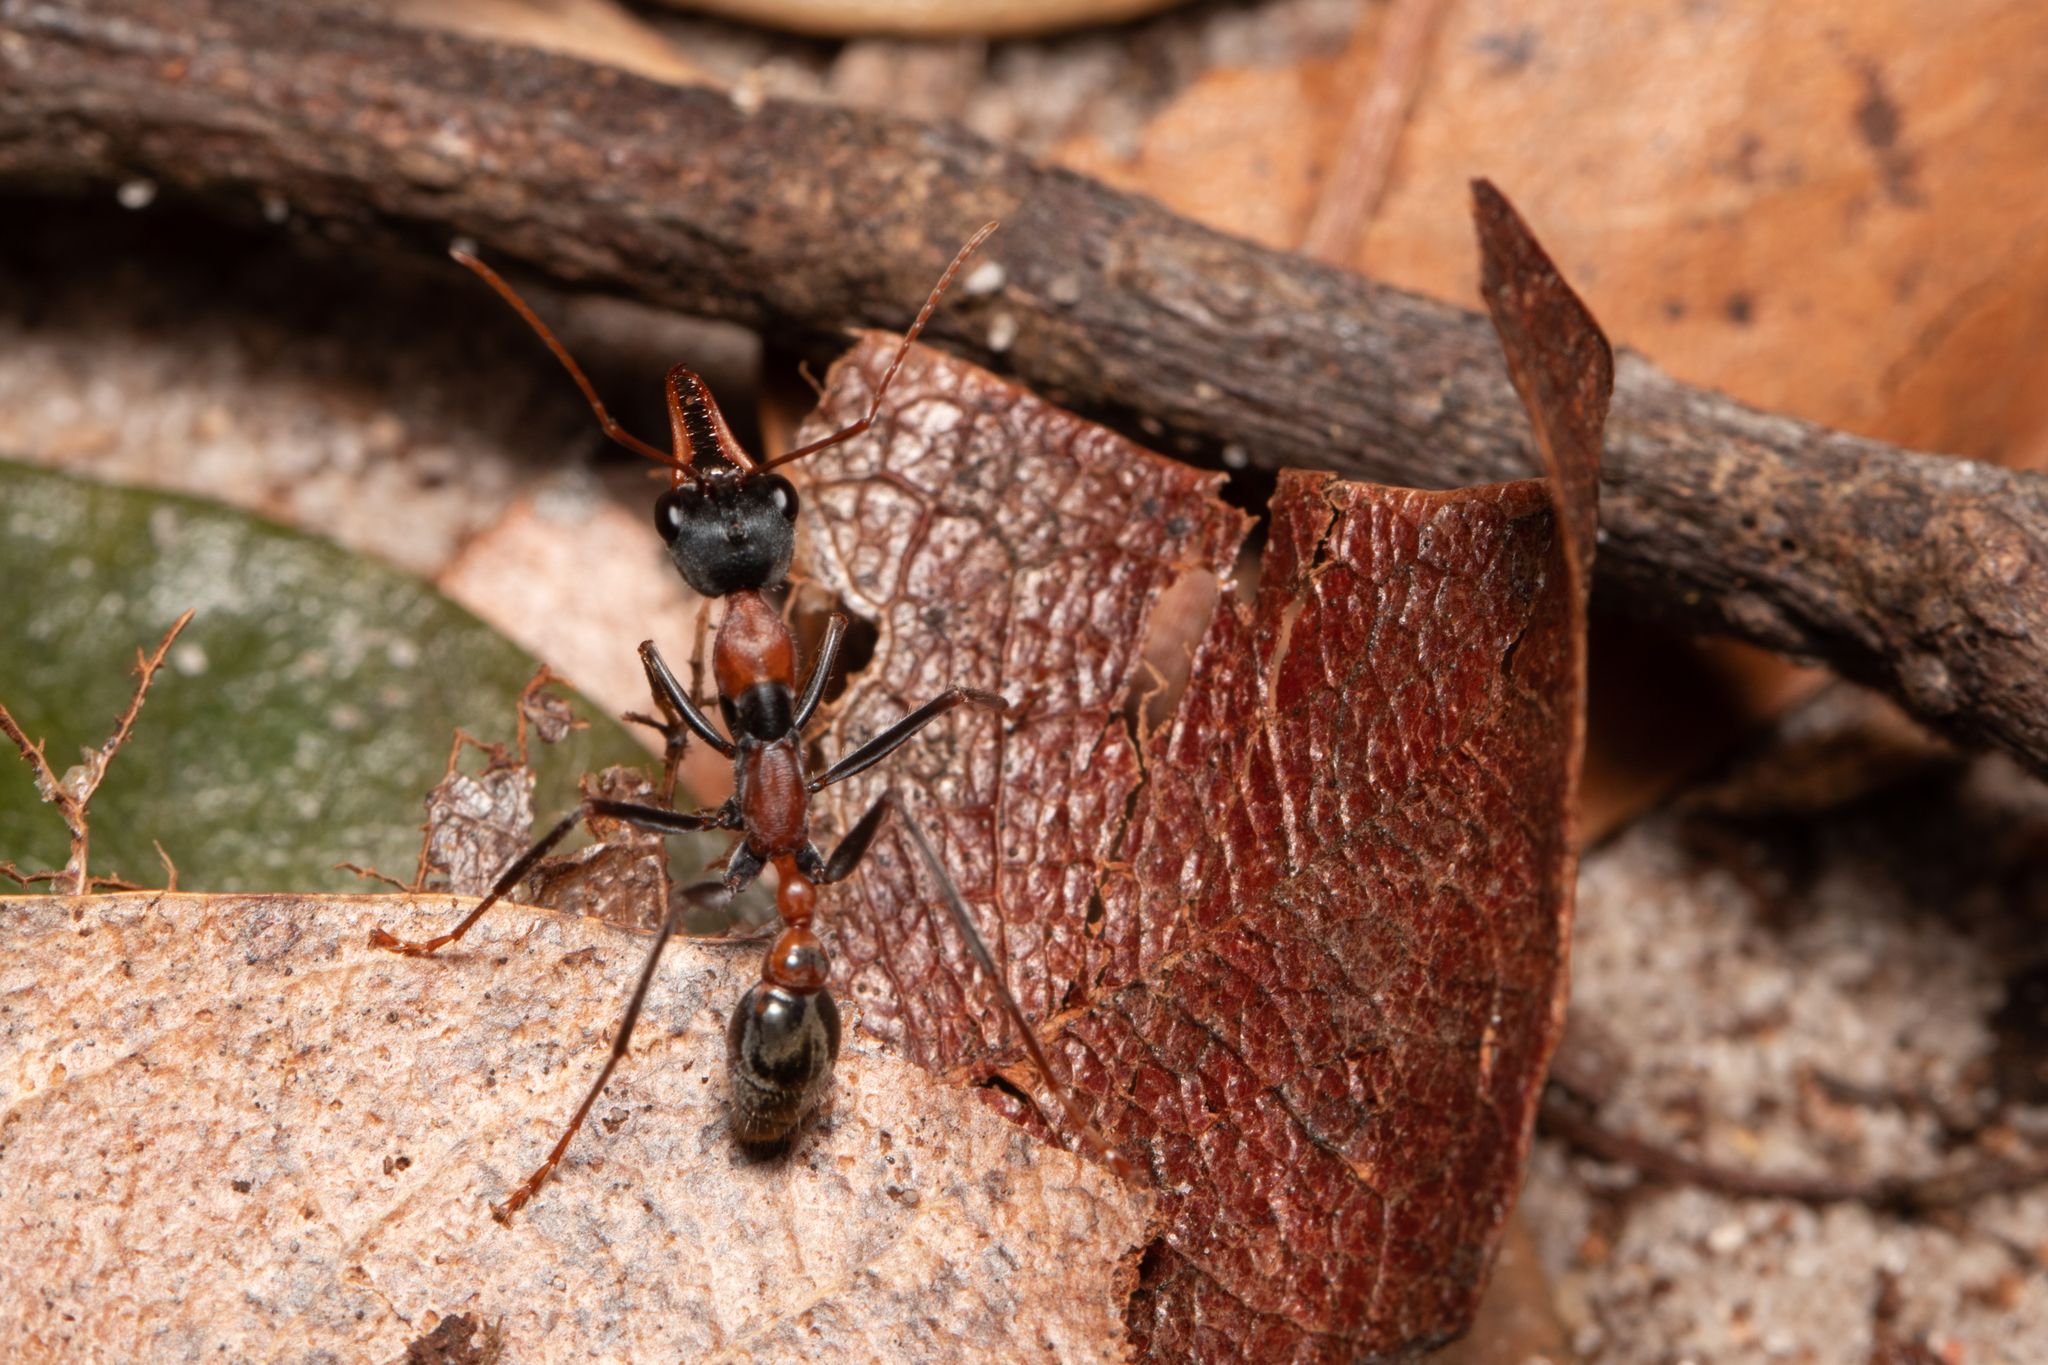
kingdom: Animalia
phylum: Arthropoda
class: Insecta
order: Hymenoptera
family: Formicidae
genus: Myrmecia
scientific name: Myrmecia nigrocincta
